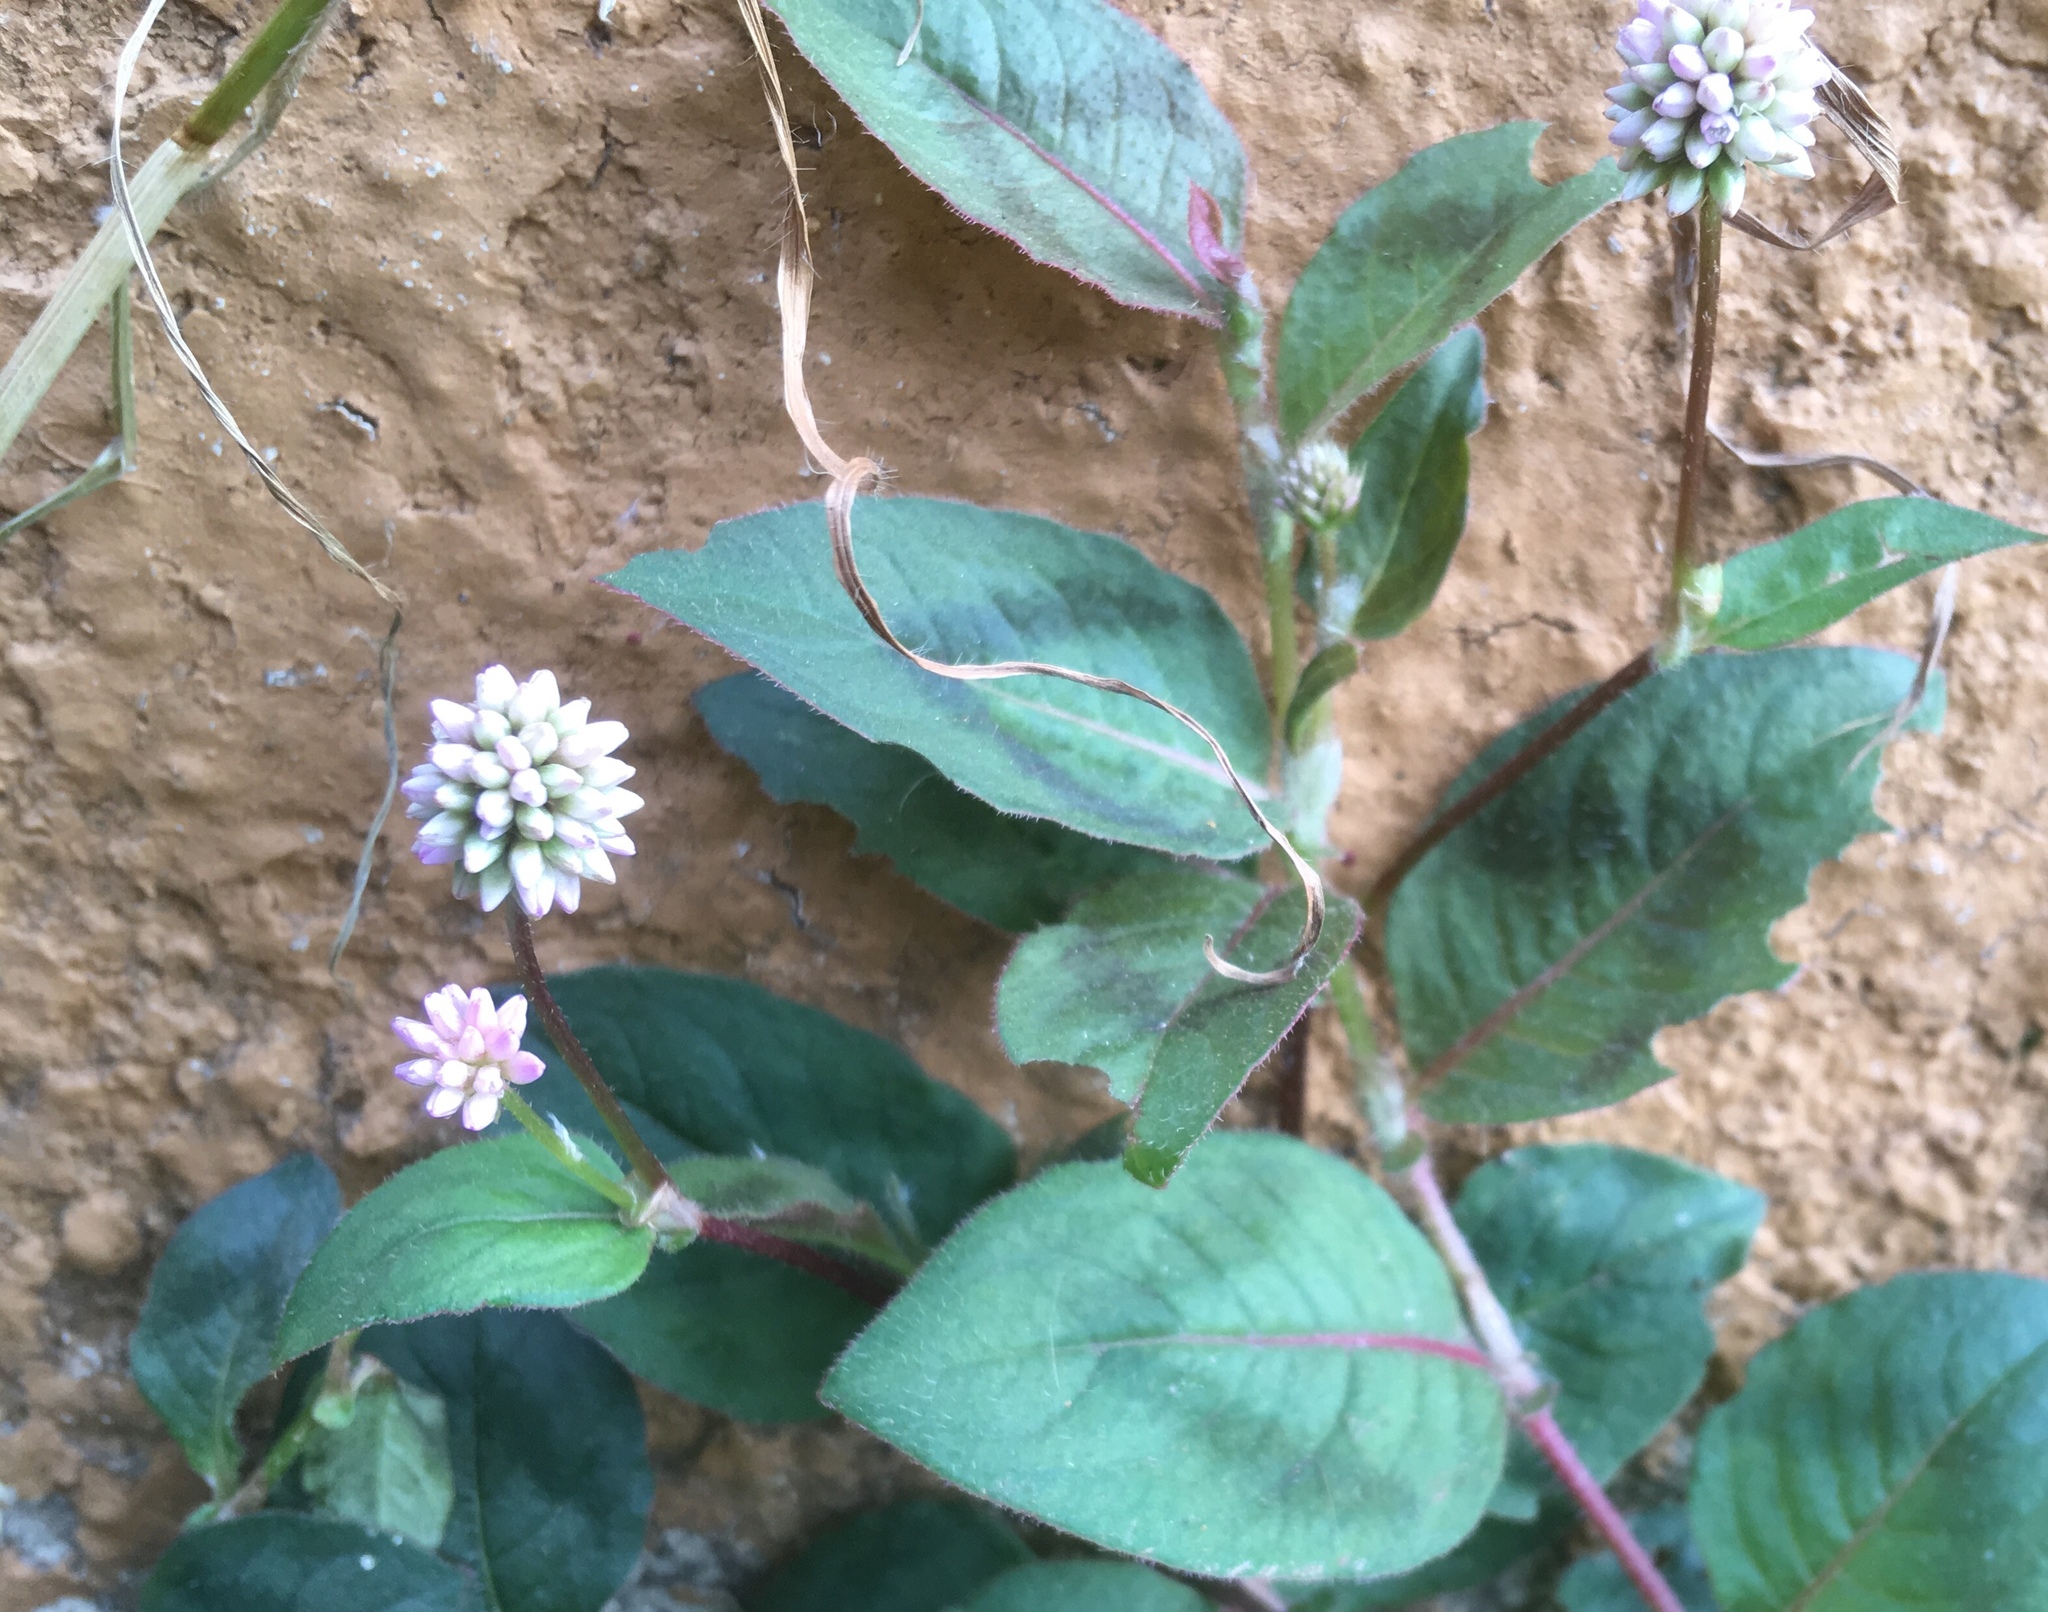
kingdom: Plantae
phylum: Tracheophyta
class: Magnoliopsida
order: Caryophyllales
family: Polygonaceae
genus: Persicaria
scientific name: Persicaria capitata
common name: Pinkhead smartweed
